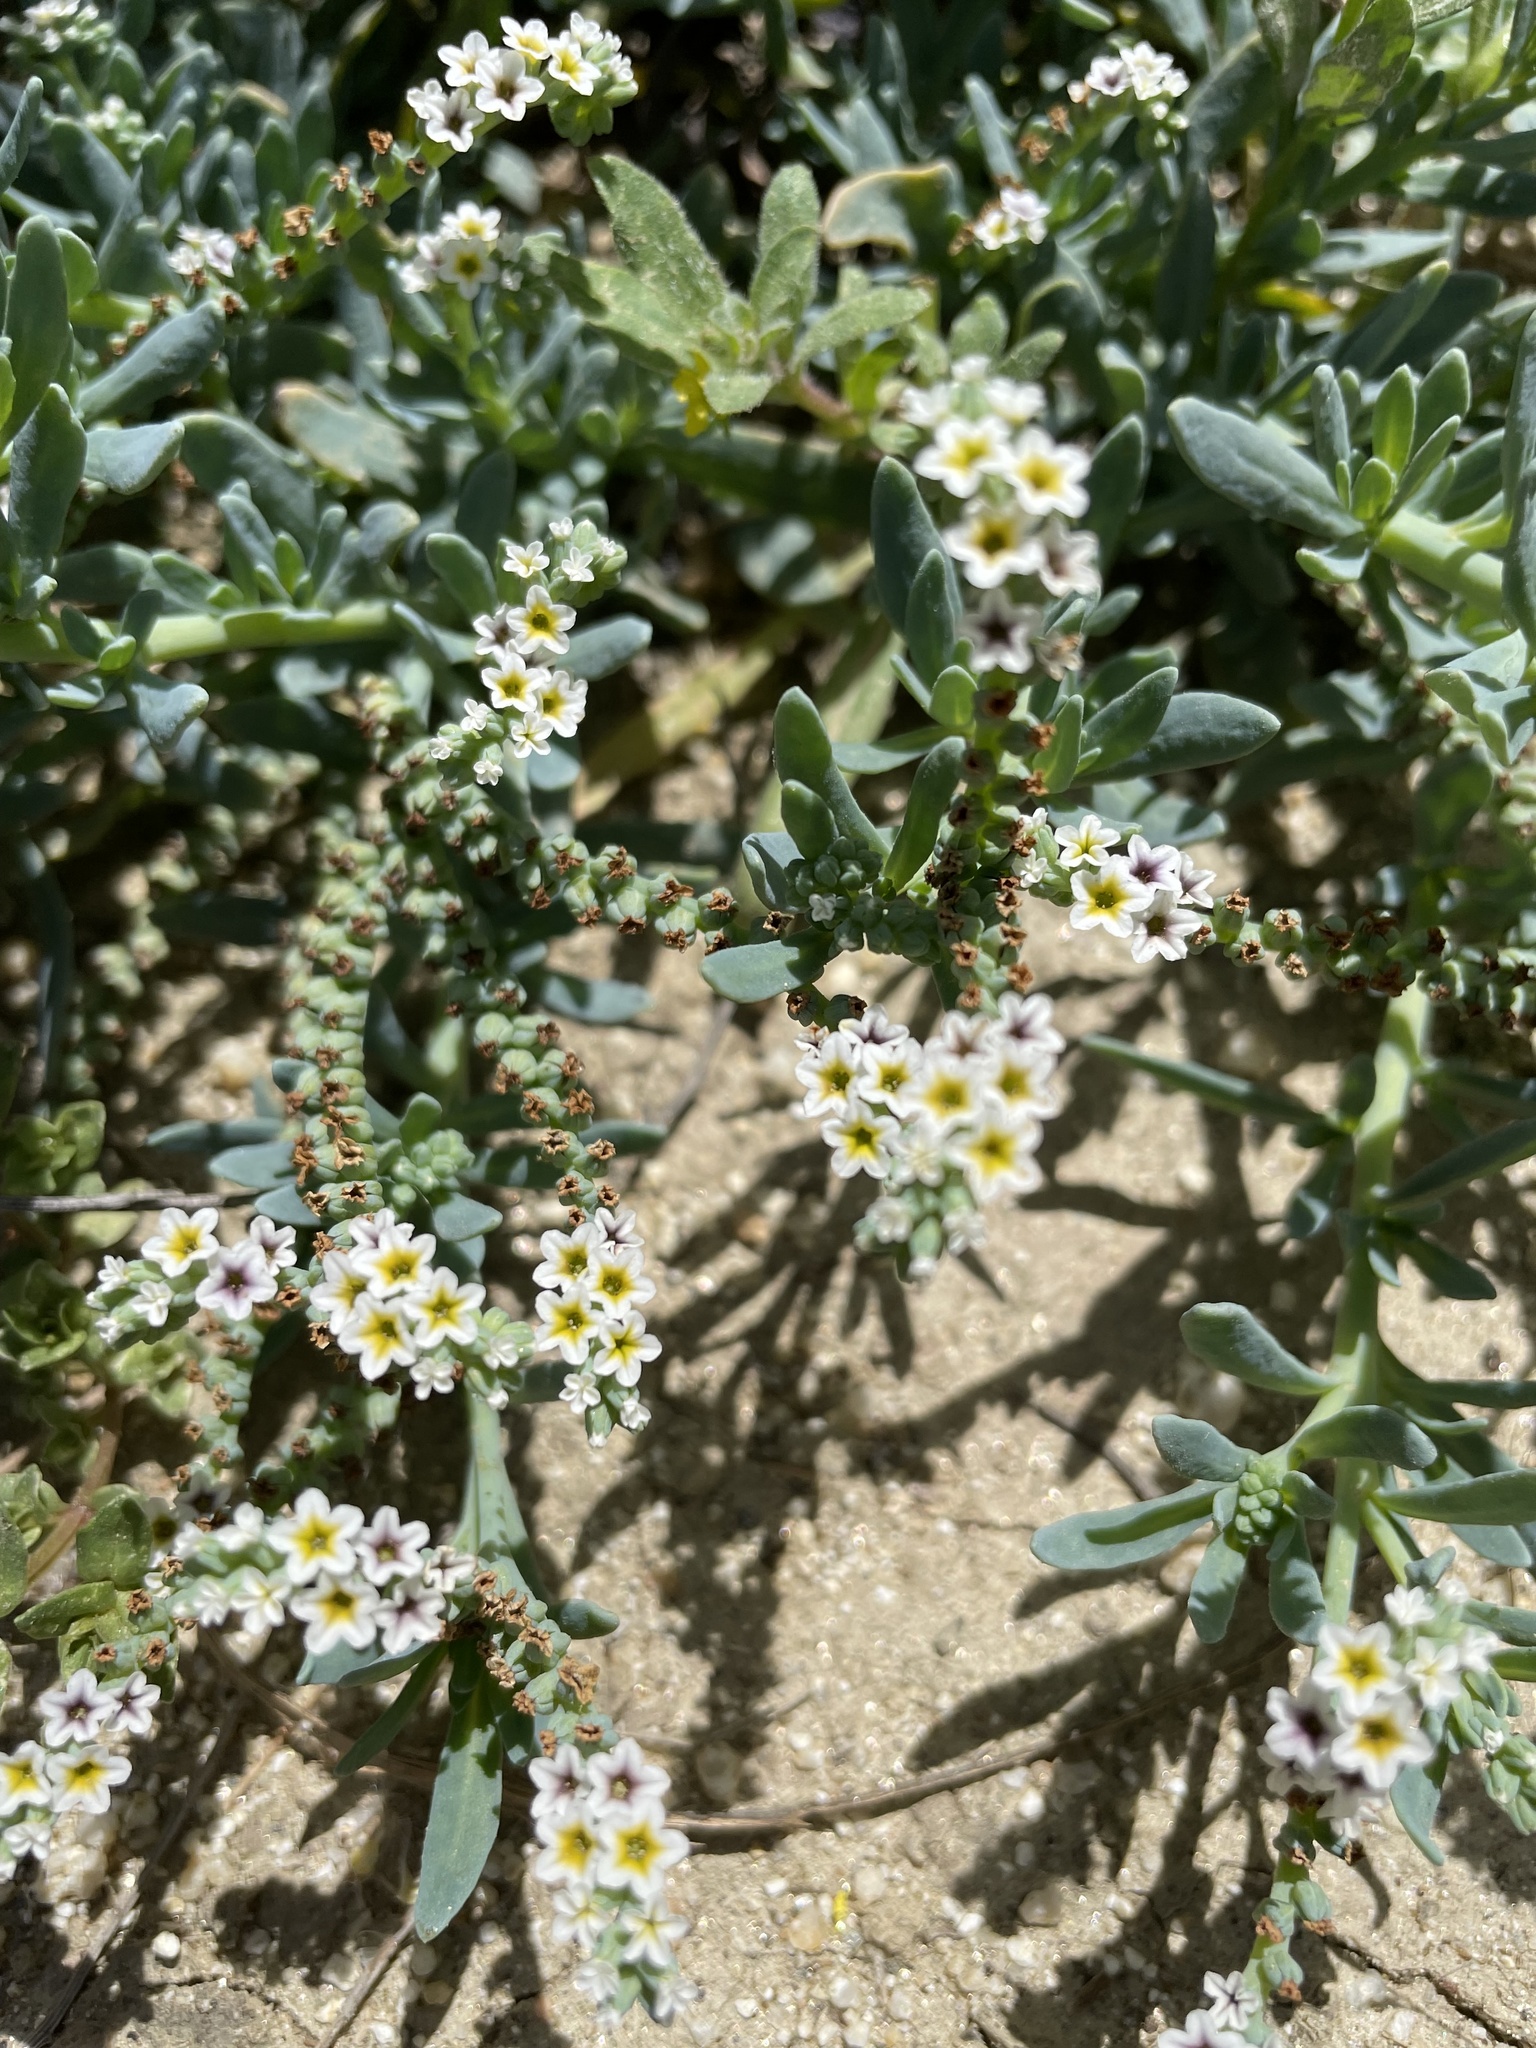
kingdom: Plantae
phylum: Tracheophyta
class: Magnoliopsida
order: Boraginales
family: Heliotropiaceae
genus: Heliotropium
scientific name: Heliotropium curassavicum
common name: Seaside heliotrope
